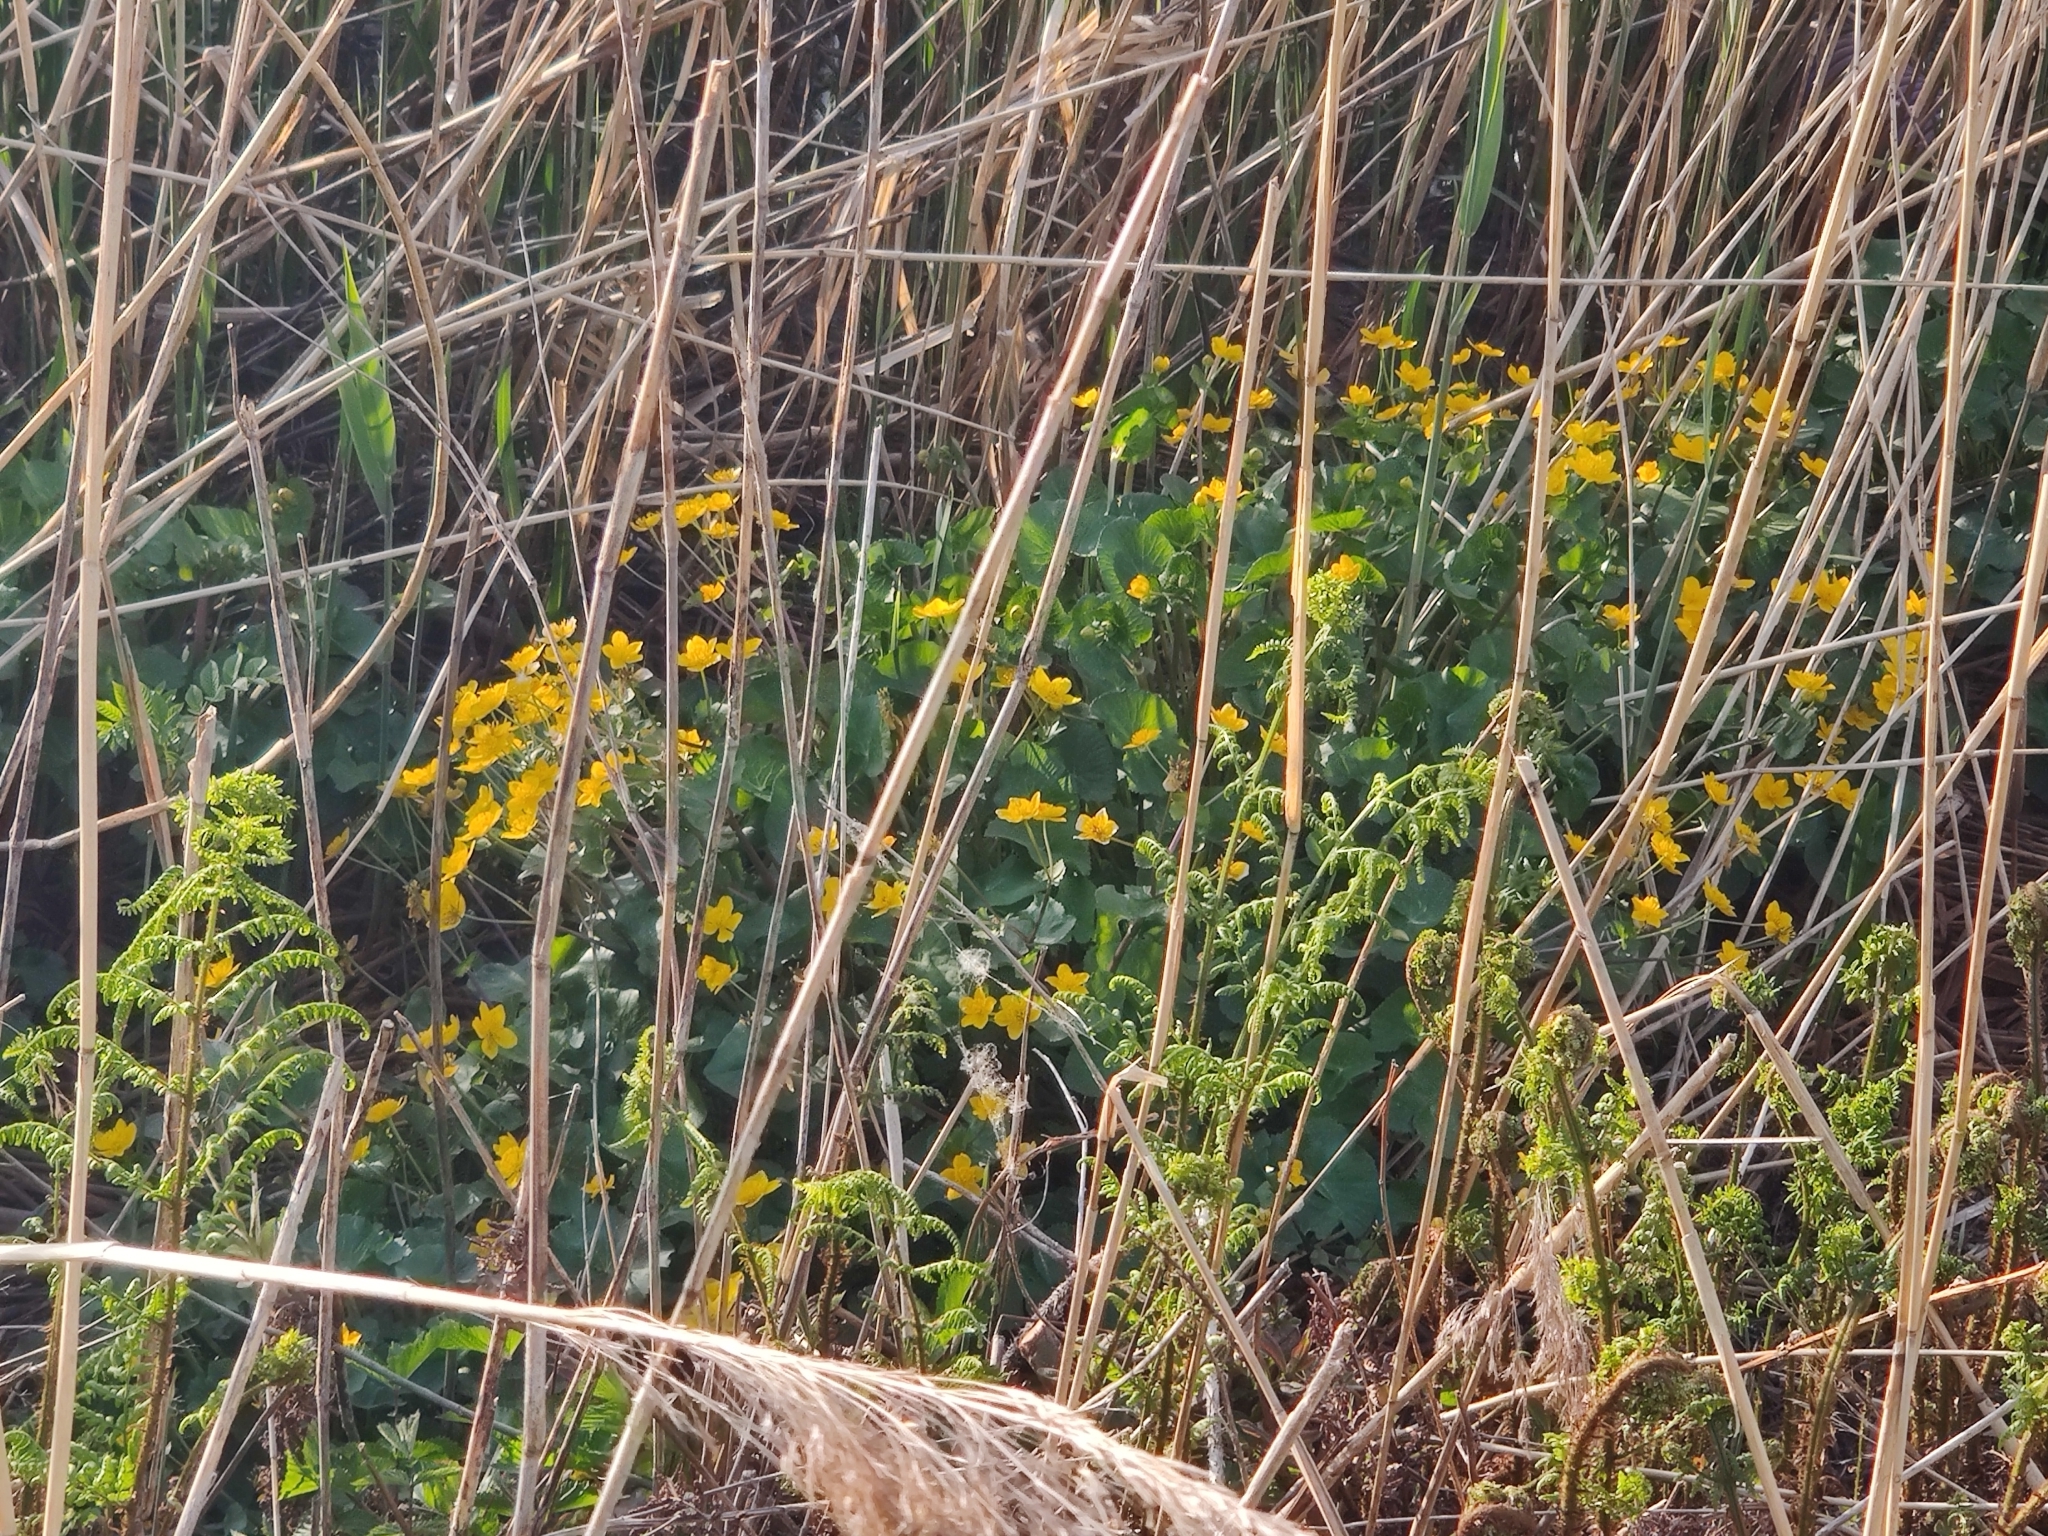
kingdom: Plantae
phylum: Tracheophyta
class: Magnoliopsida
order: Ranunculales
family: Ranunculaceae
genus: Caltha
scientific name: Caltha palustris
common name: Marsh marigold
